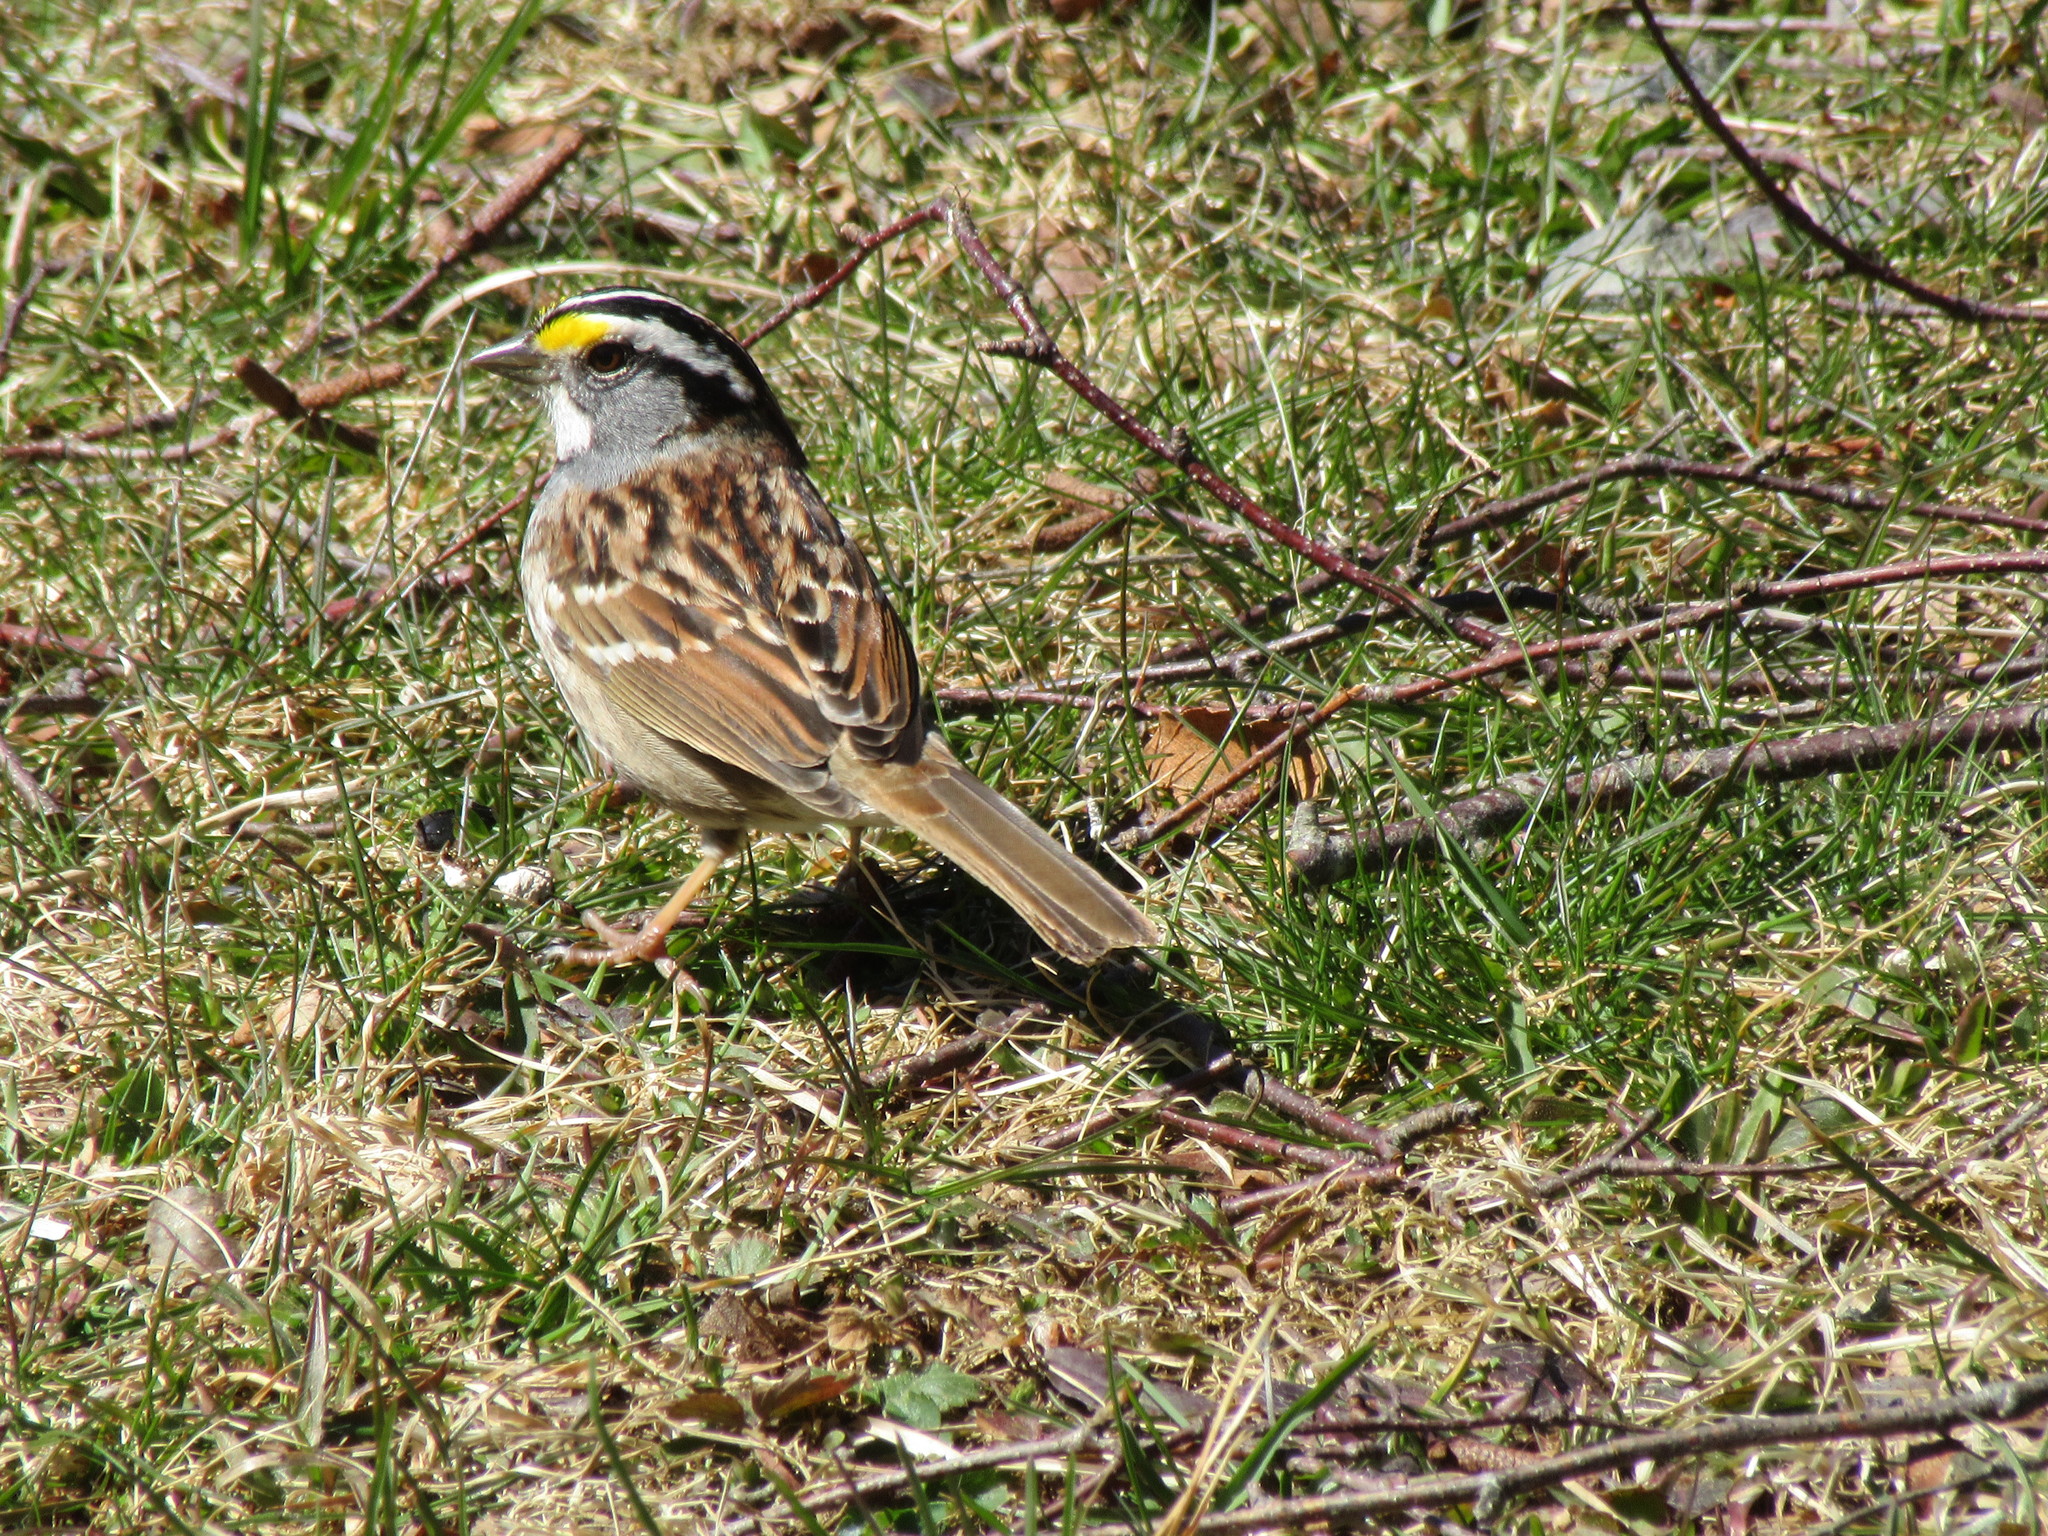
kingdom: Animalia
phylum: Chordata
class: Aves
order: Passeriformes
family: Passerellidae
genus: Zonotrichia
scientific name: Zonotrichia albicollis
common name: White-throated sparrow
